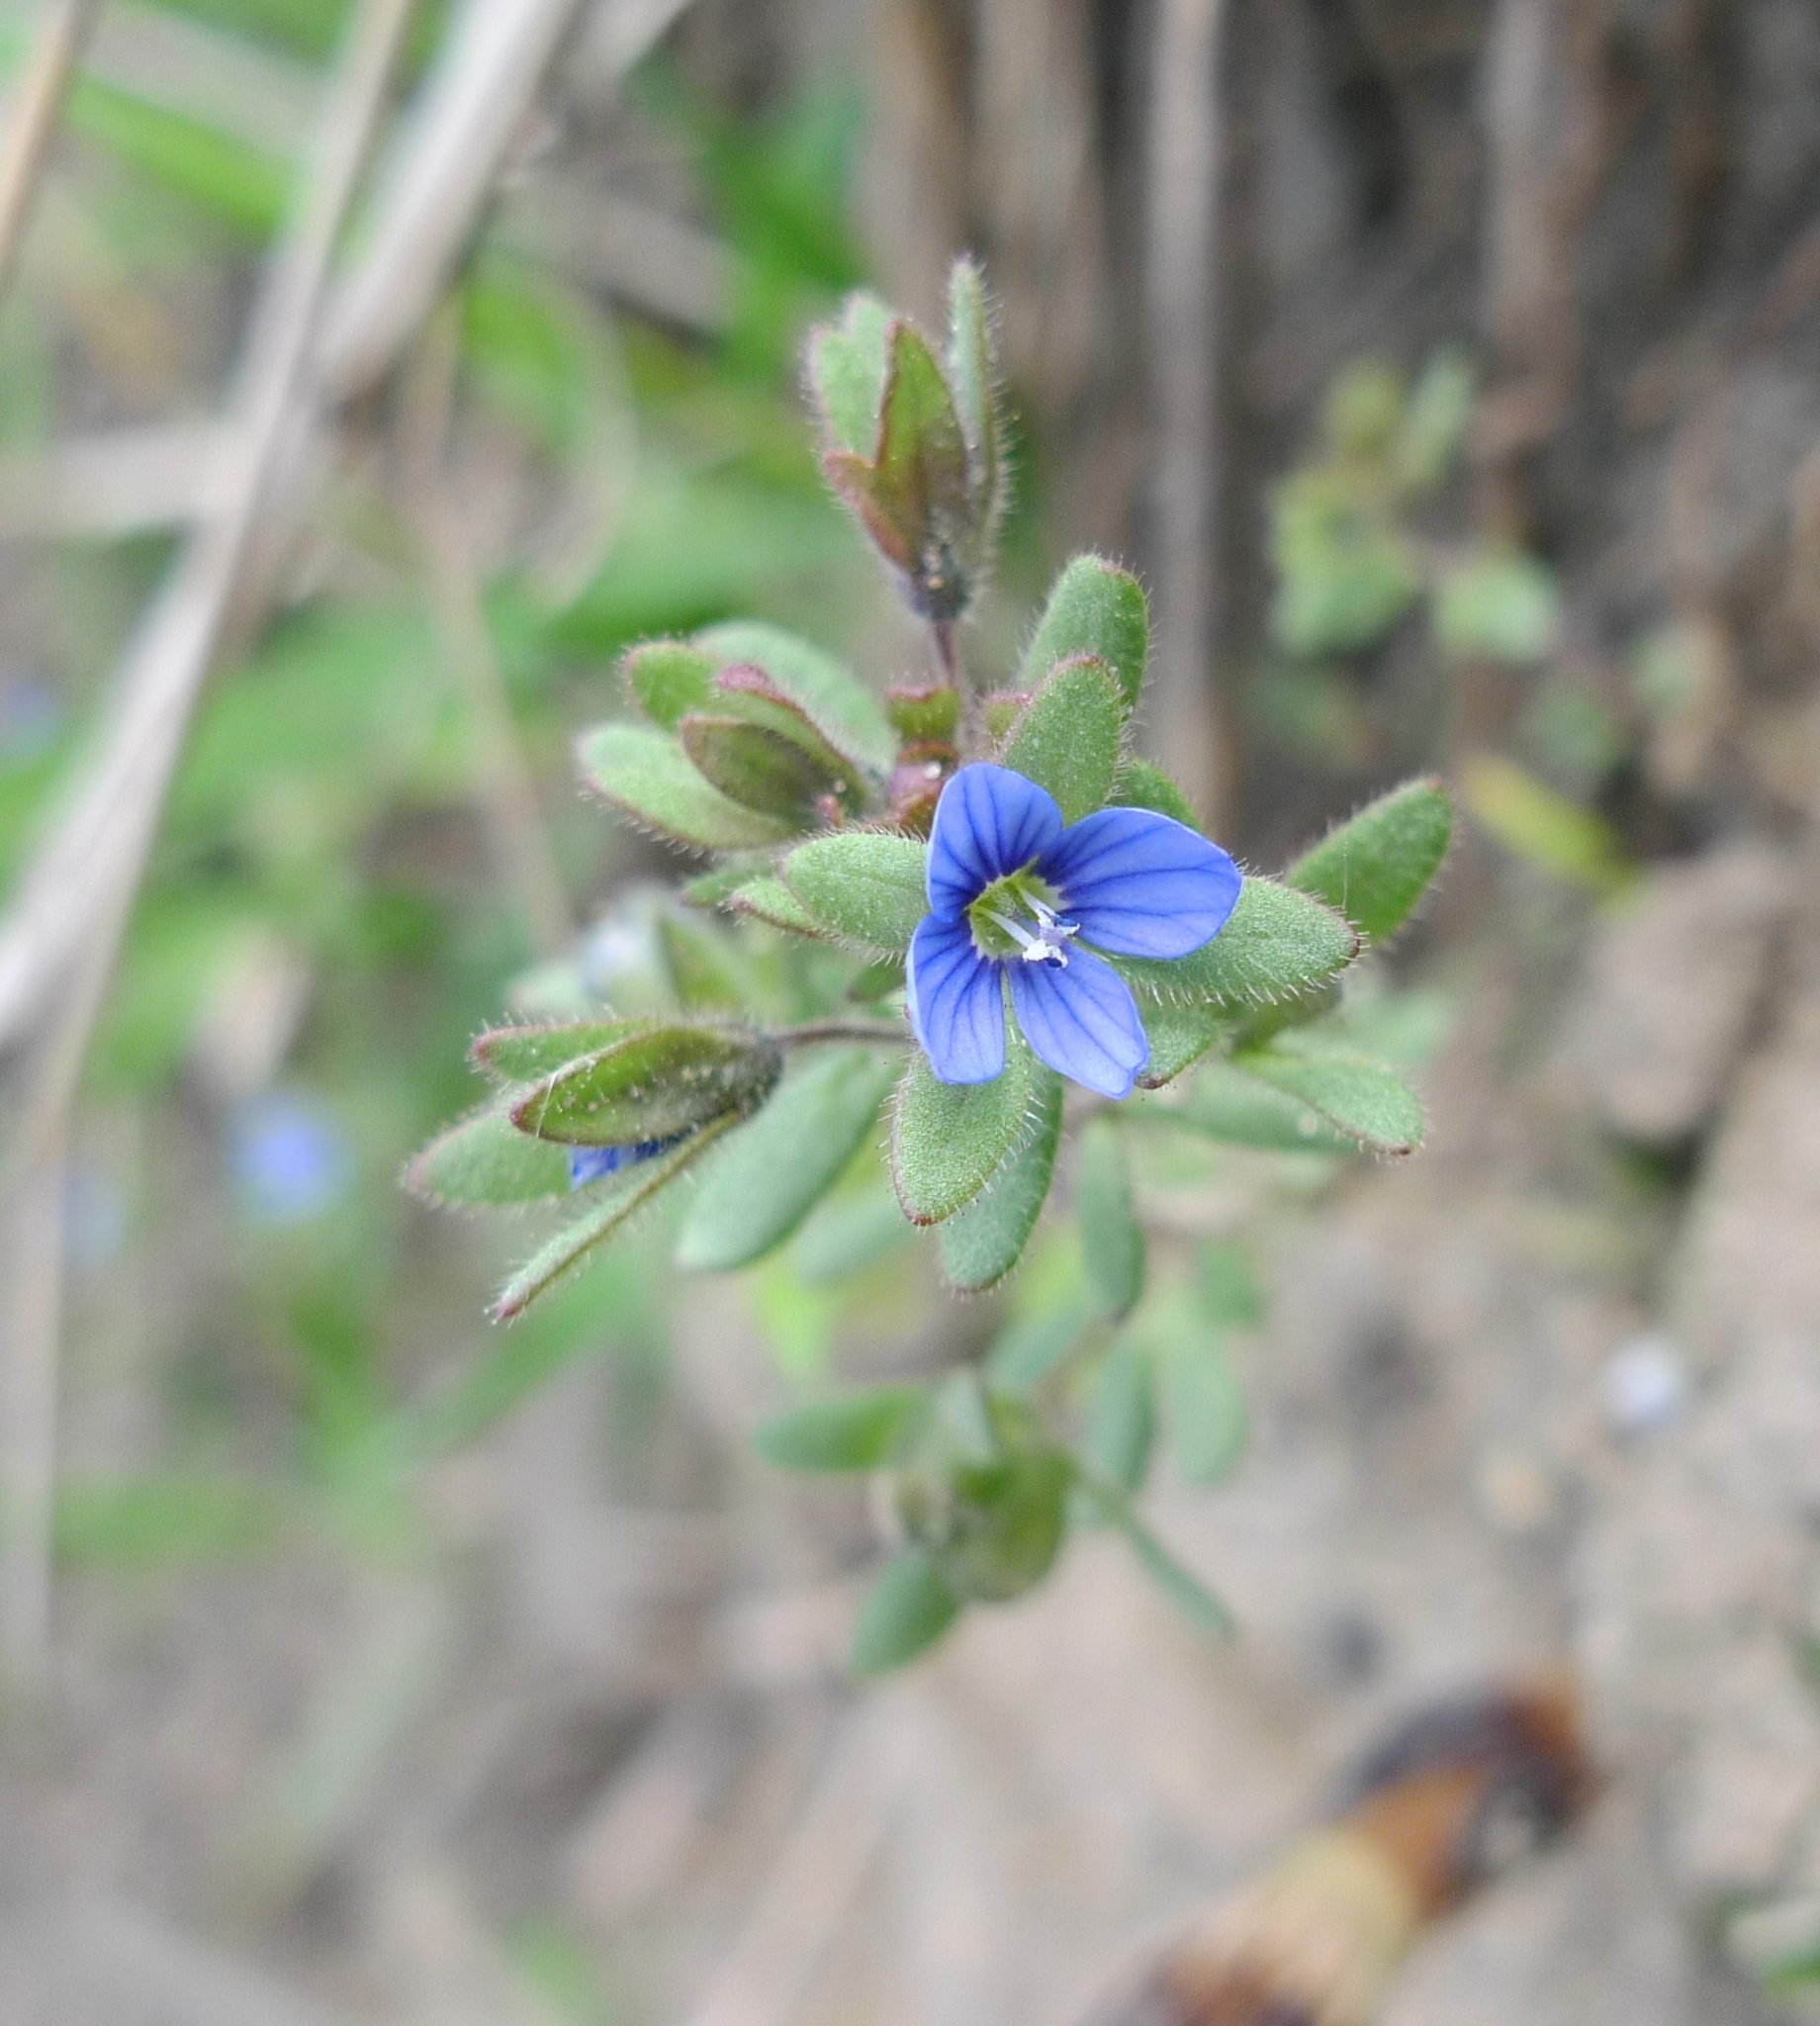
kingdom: Plantae
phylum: Tracheophyta
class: Magnoliopsida
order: Lamiales
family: Plantaginaceae
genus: Veronica
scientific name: Veronica triphyllos
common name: Fingered speedwell
